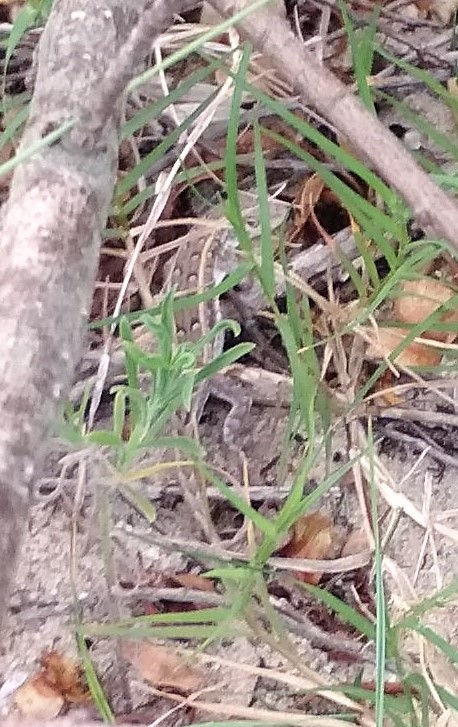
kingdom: Animalia
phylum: Chordata
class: Squamata
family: Liolaemidae
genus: Liolaemus
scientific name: Liolaemus wiegmannii
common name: Wiegmann's tree iguana
